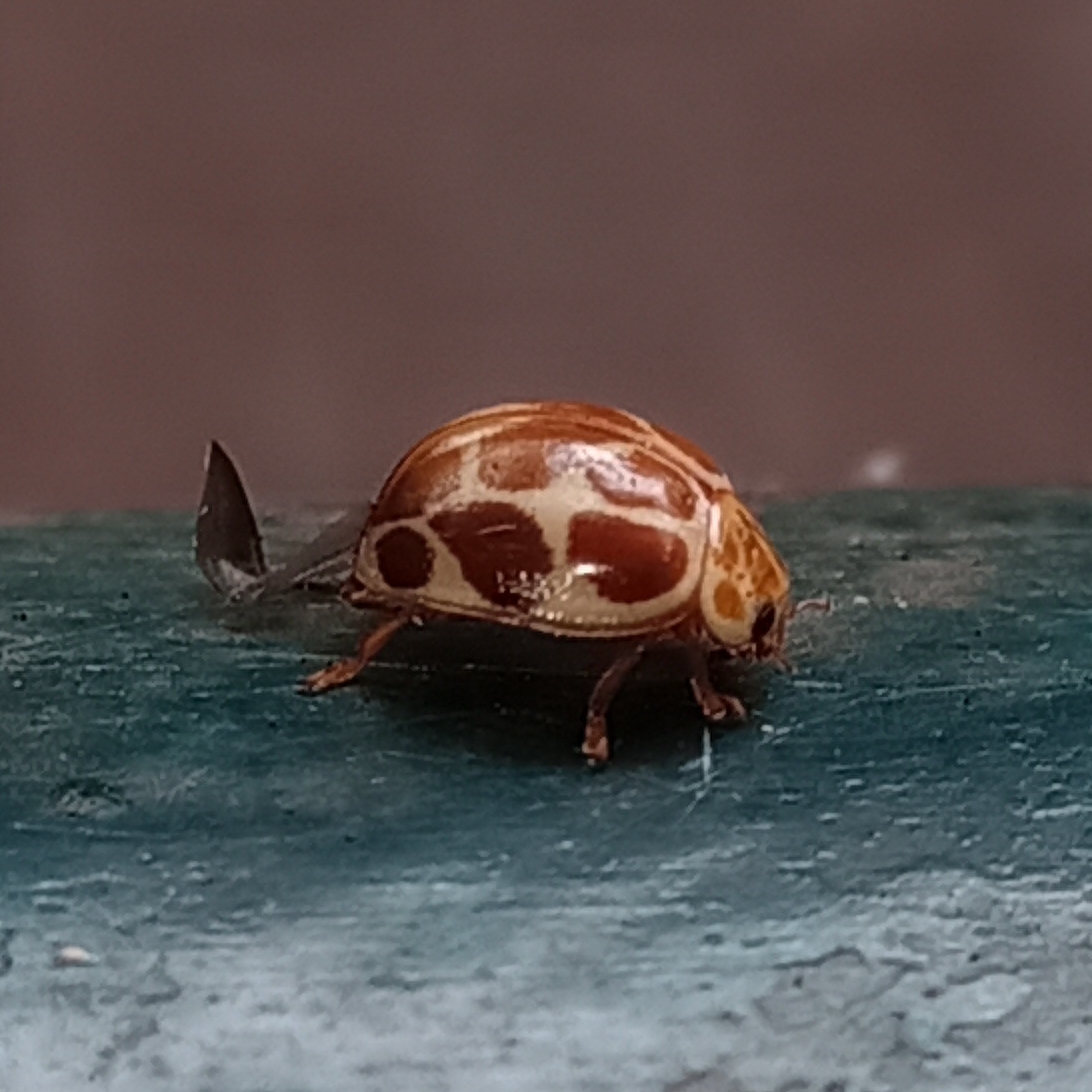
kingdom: Animalia
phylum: Arthropoda
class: Insecta
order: Coleoptera
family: Coccinellidae
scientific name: Coccinellidae
